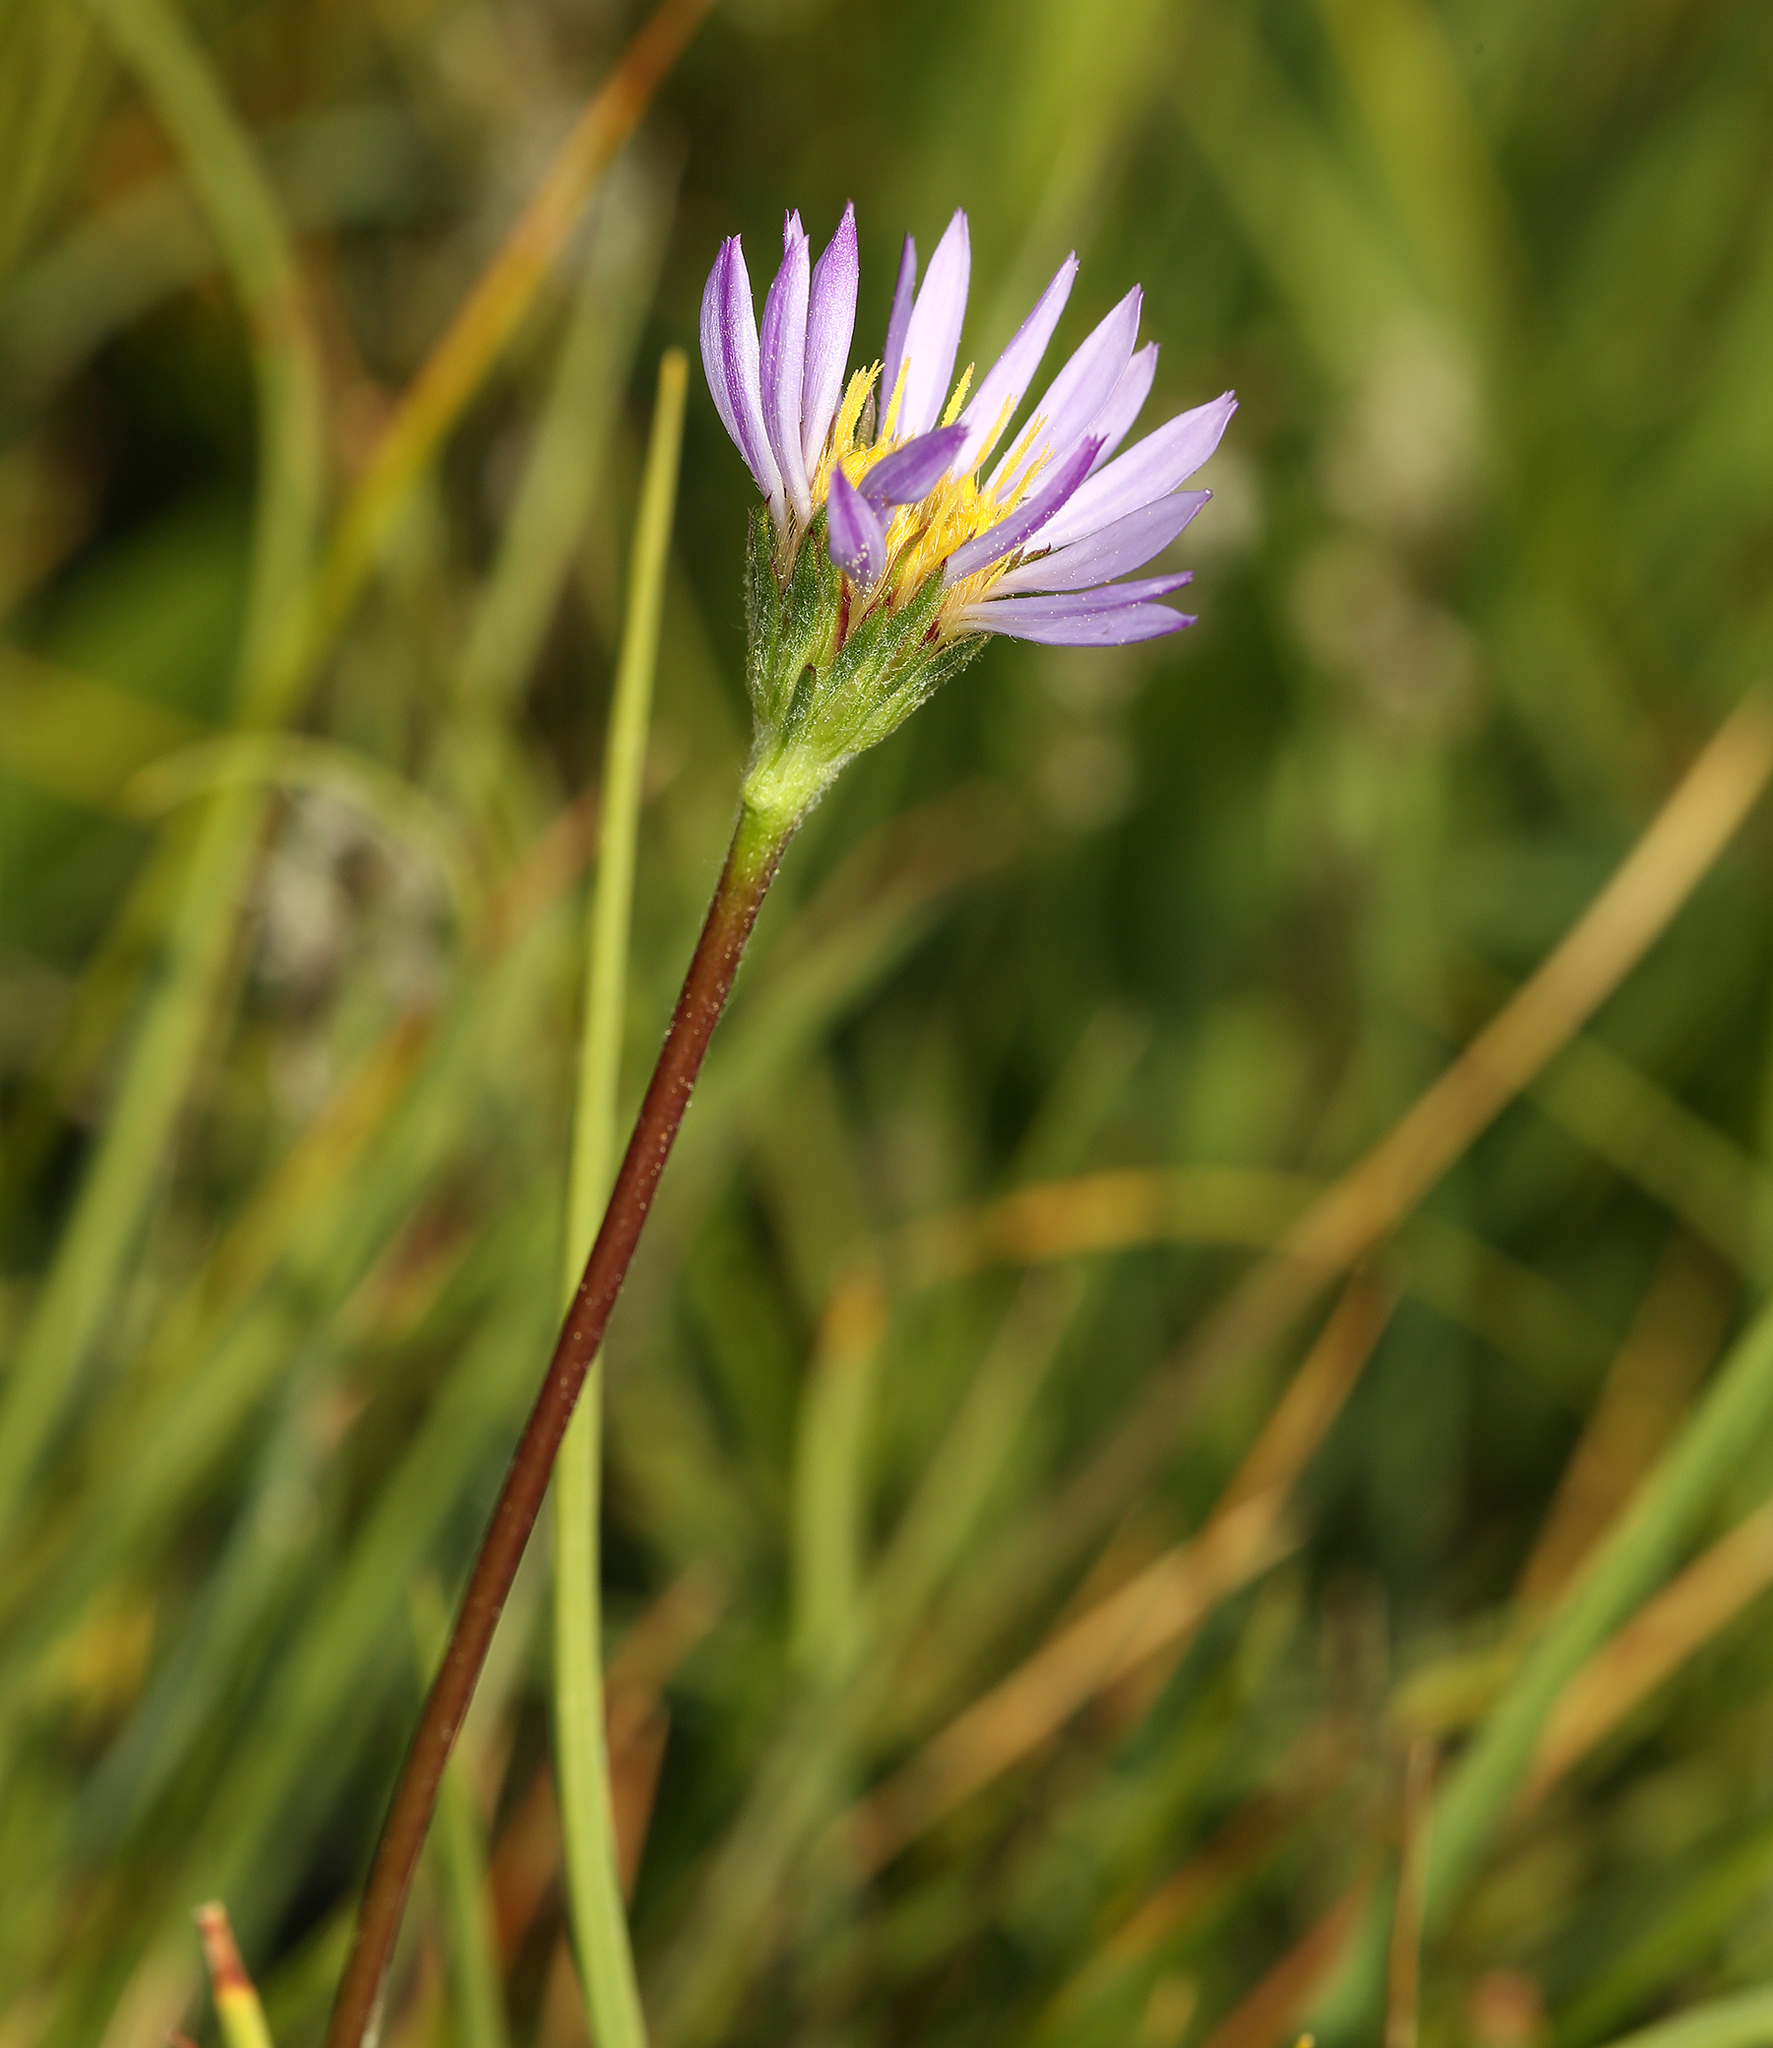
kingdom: Plantae
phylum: Tracheophyta
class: Magnoliopsida
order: Asterales
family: Asteraceae
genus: Oreostemma
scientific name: Oreostemma alpigenum
